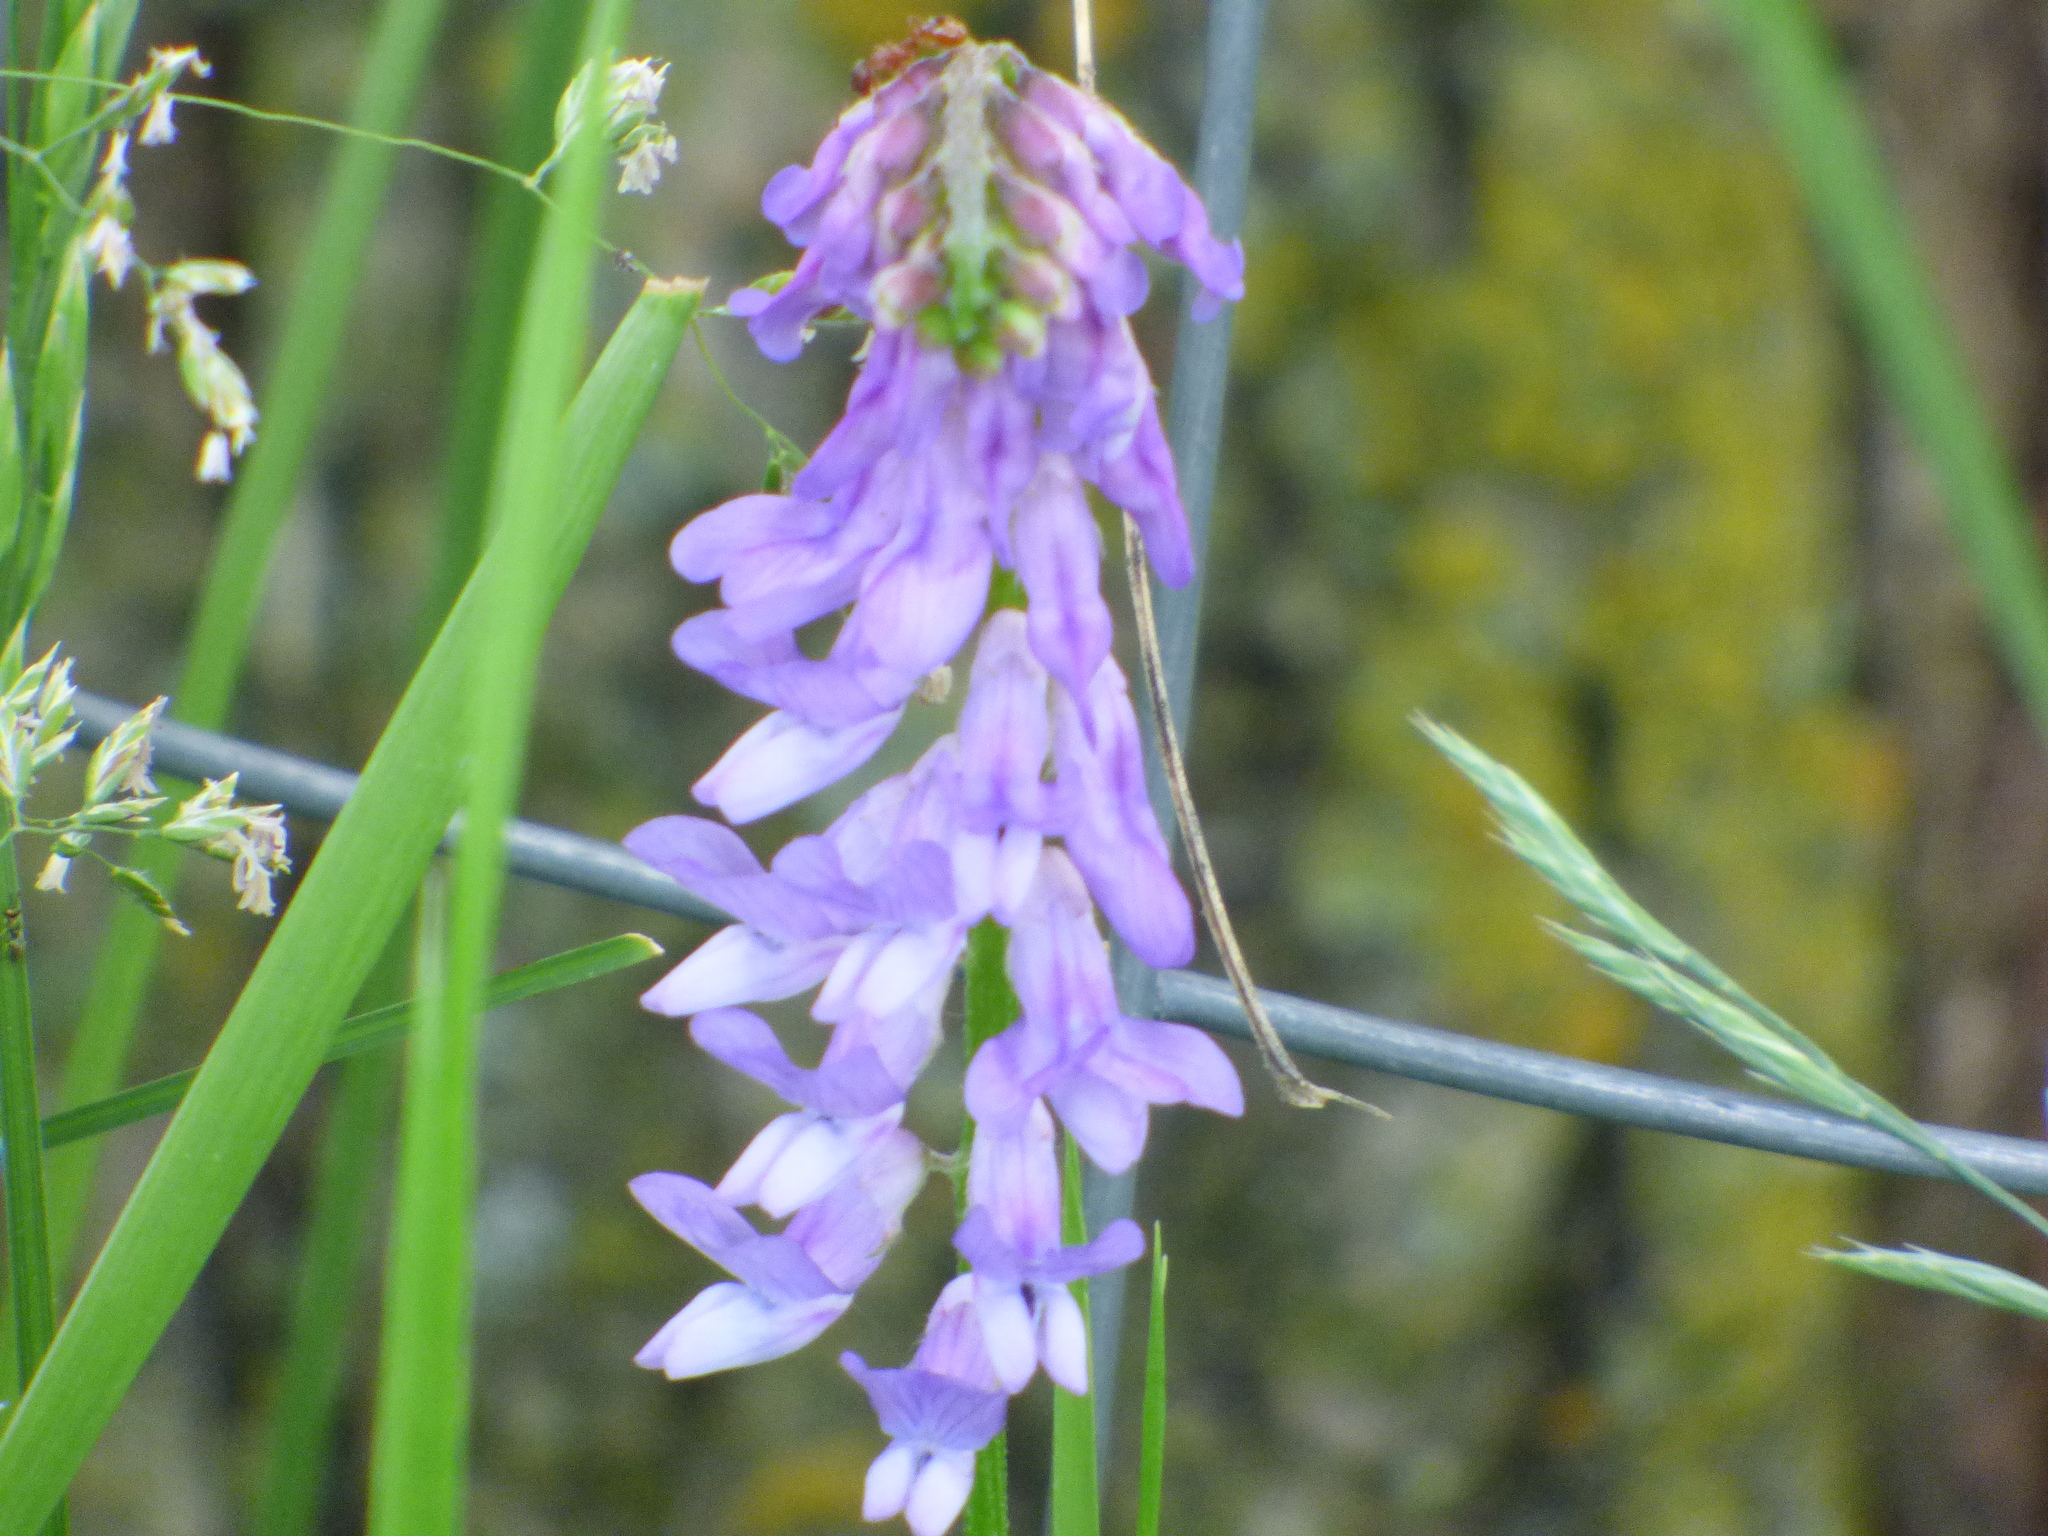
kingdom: Plantae
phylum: Tracheophyta
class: Magnoliopsida
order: Fabales
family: Fabaceae
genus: Vicia
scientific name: Vicia cracca
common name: Bird vetch
